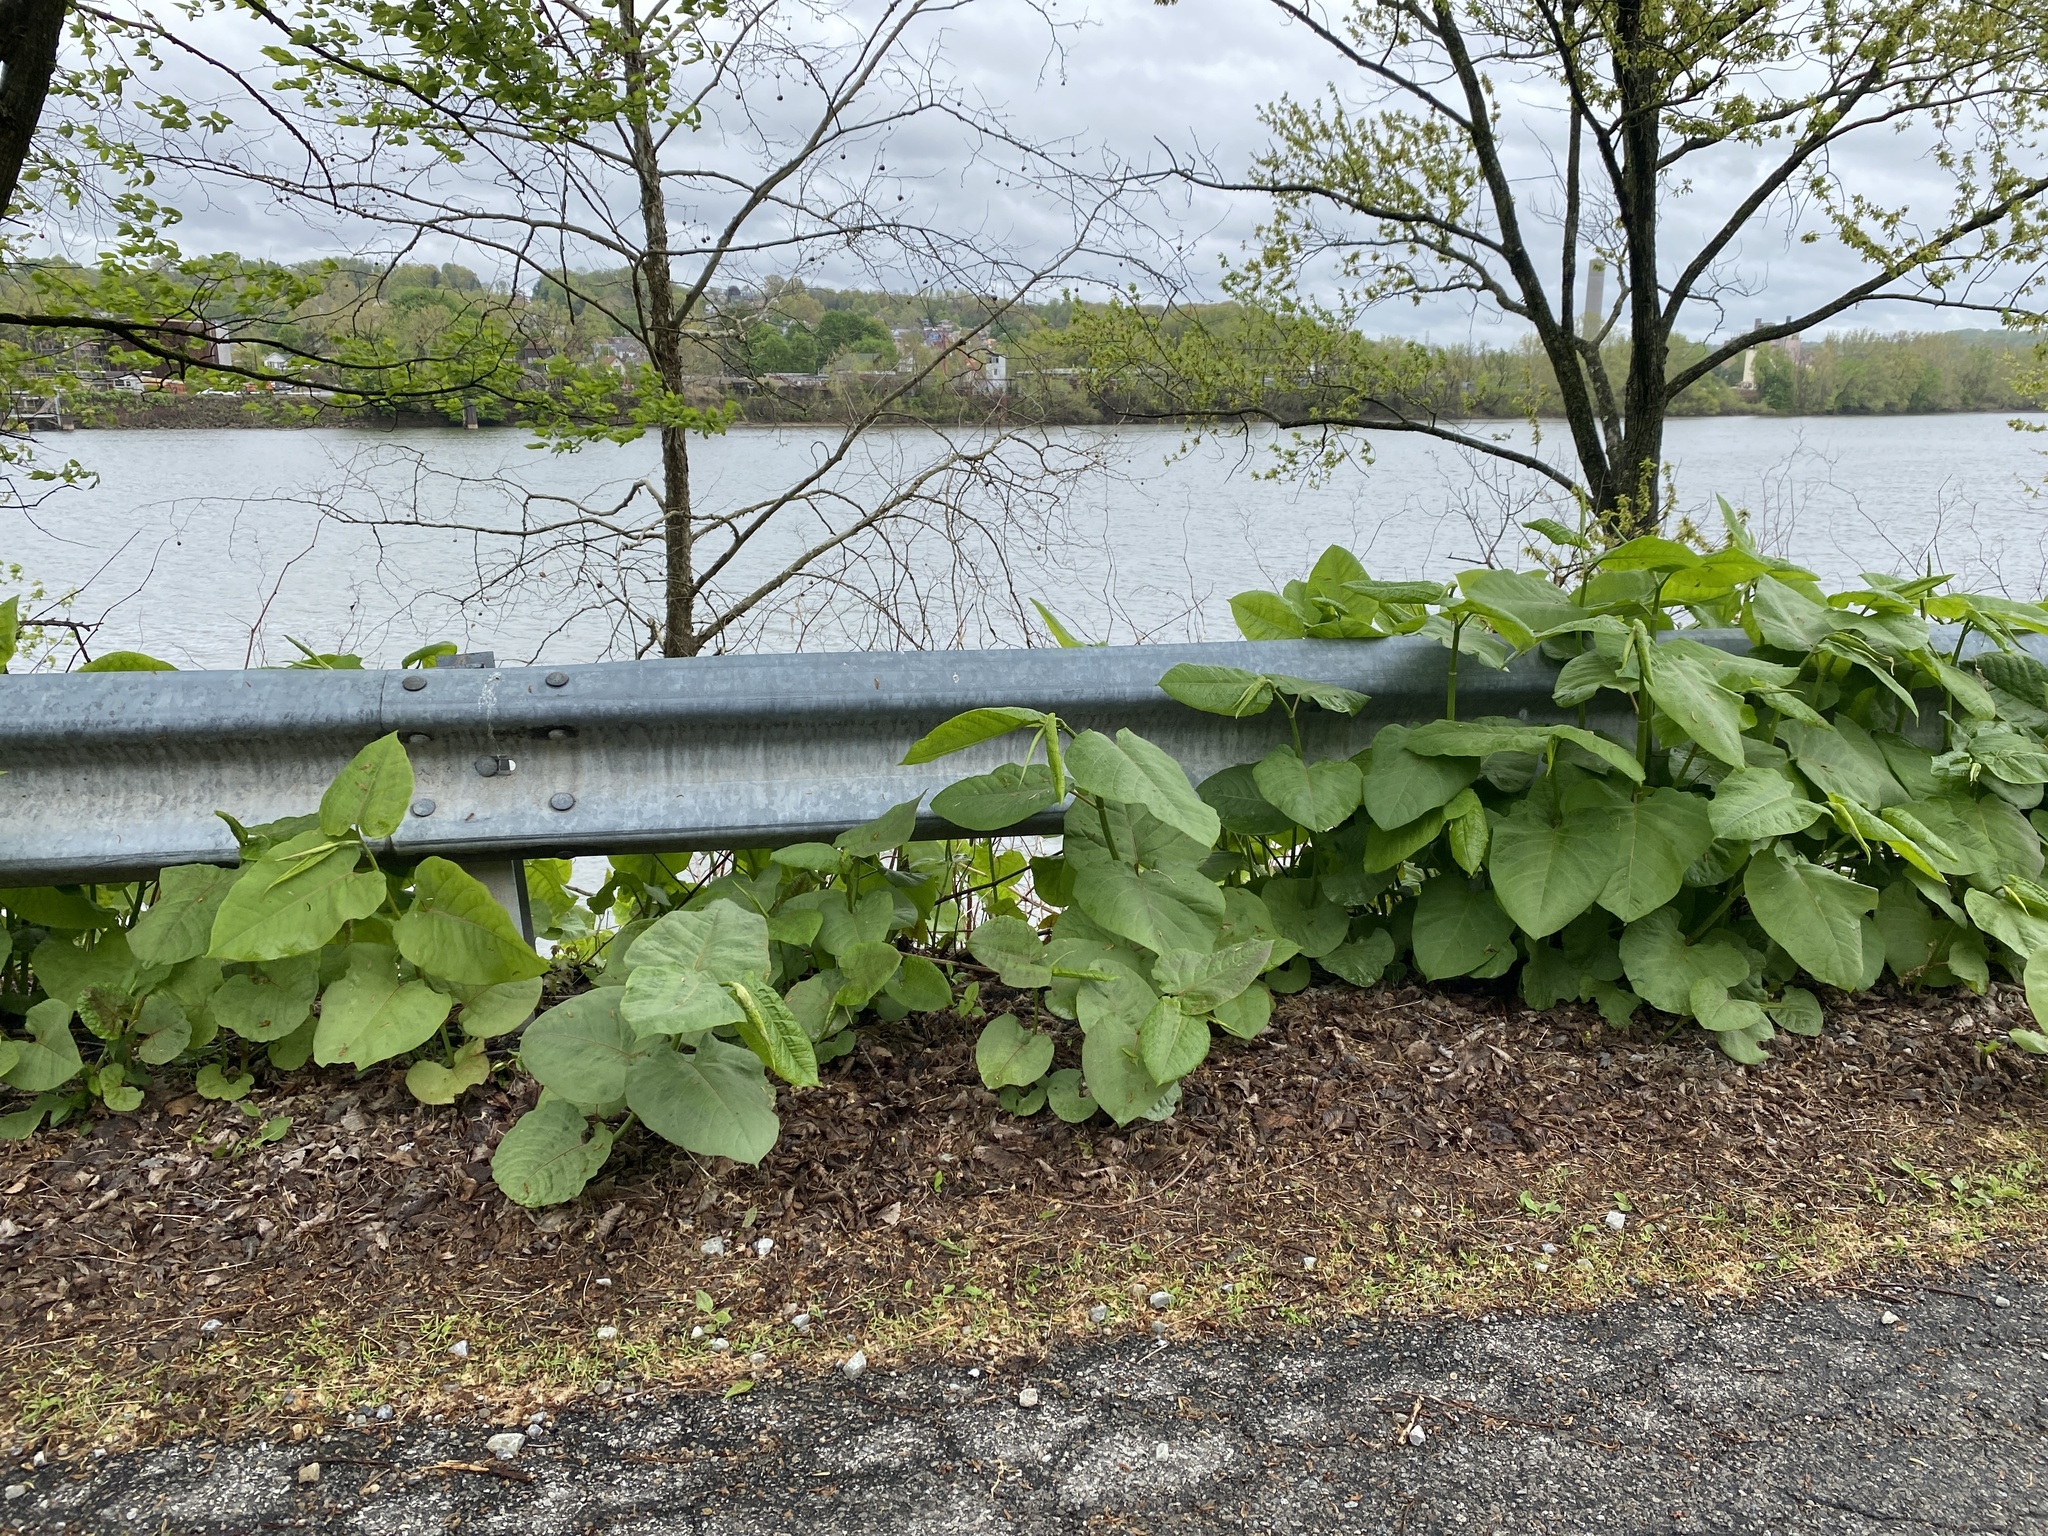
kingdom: Plantae
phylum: Tracheophyta
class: Magnoliopsida
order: Caryophyllales
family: Polygonaceae
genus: Reynoutria
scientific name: Reynoutria sachalinensis
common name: Giant knotweed
